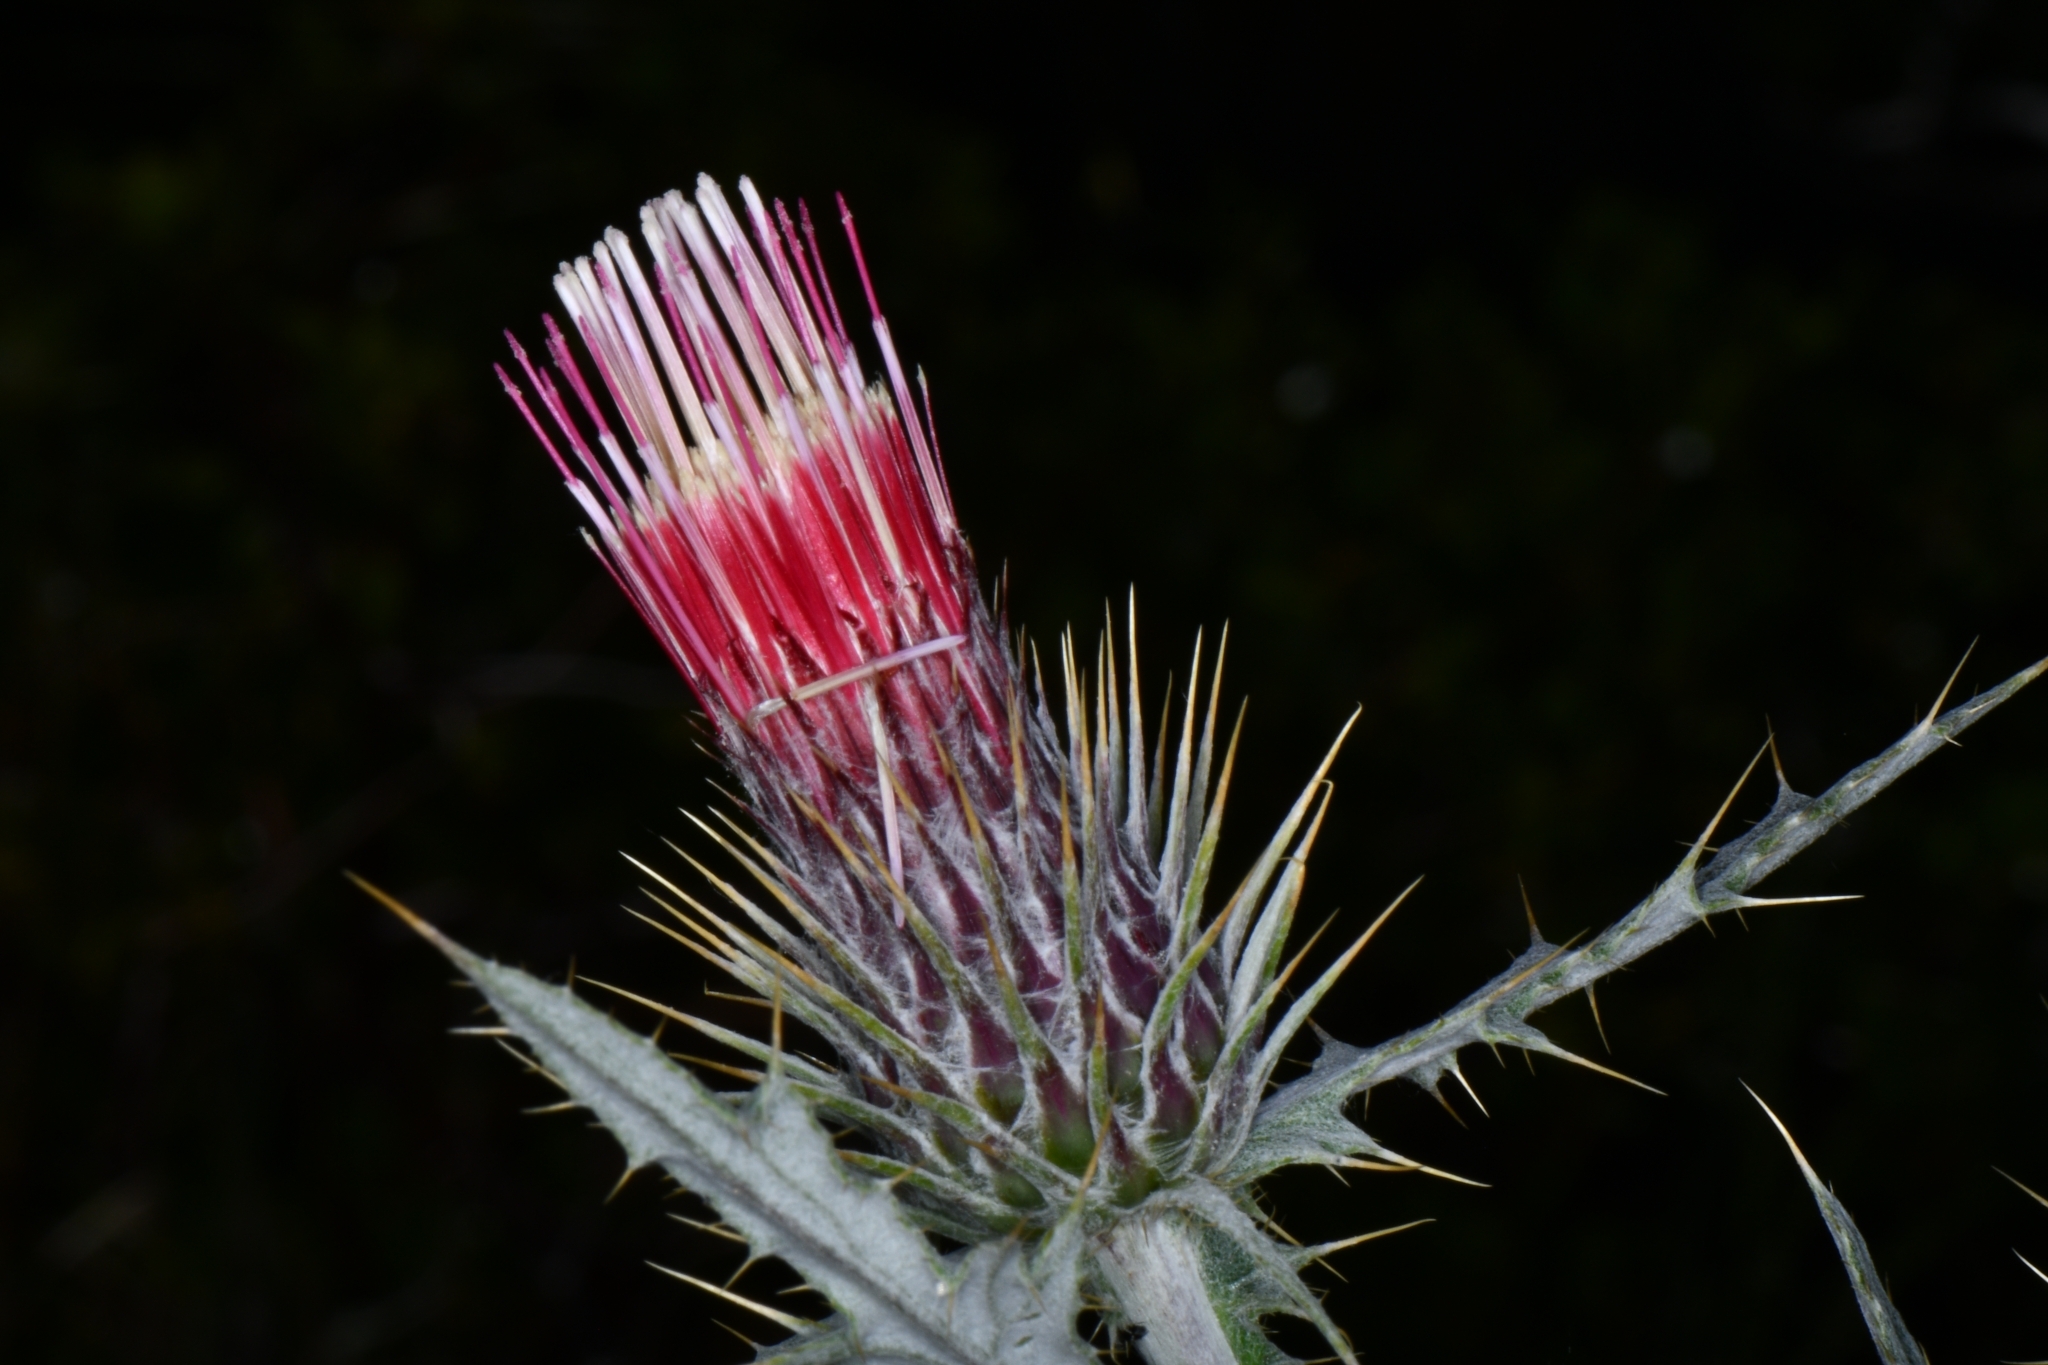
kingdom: Plantae
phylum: Tracheophyta
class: Magnoliopsida
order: Asterales
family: Asteraceae
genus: Cirsium
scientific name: Cirsium arizonicum
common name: Arizona thistle
